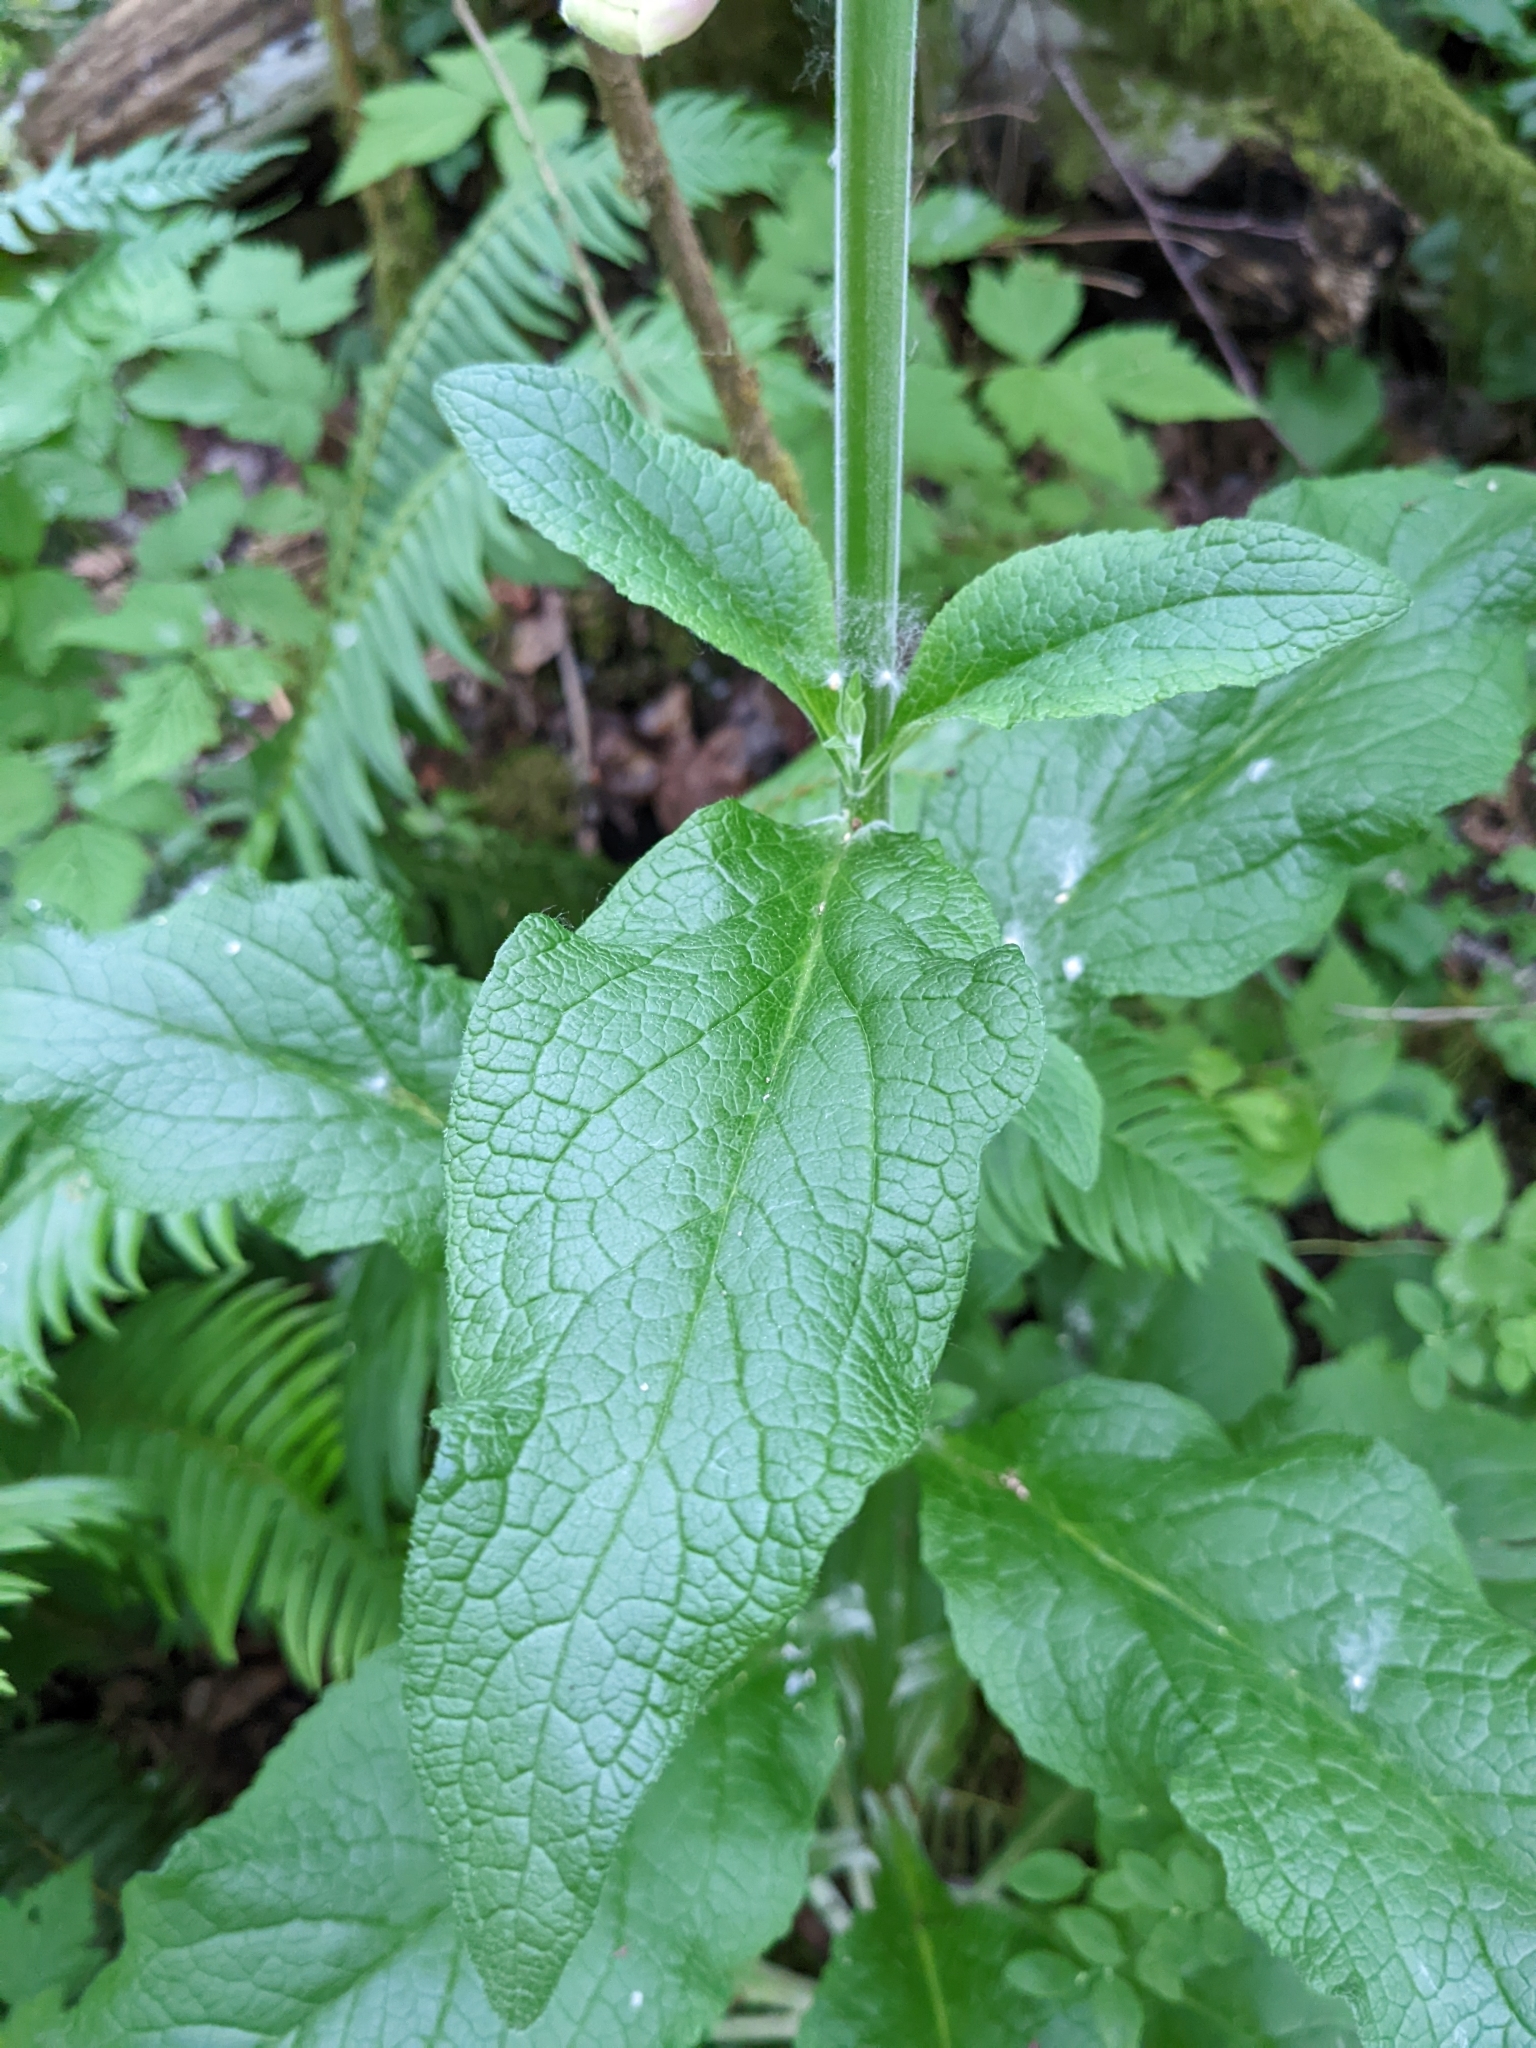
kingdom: Plantae
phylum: Tracheophyta
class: Magnoliopsida
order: Lamiales
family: Plantaginaceae
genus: Digitalis
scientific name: Digitalis purpurea
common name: Foxglove
